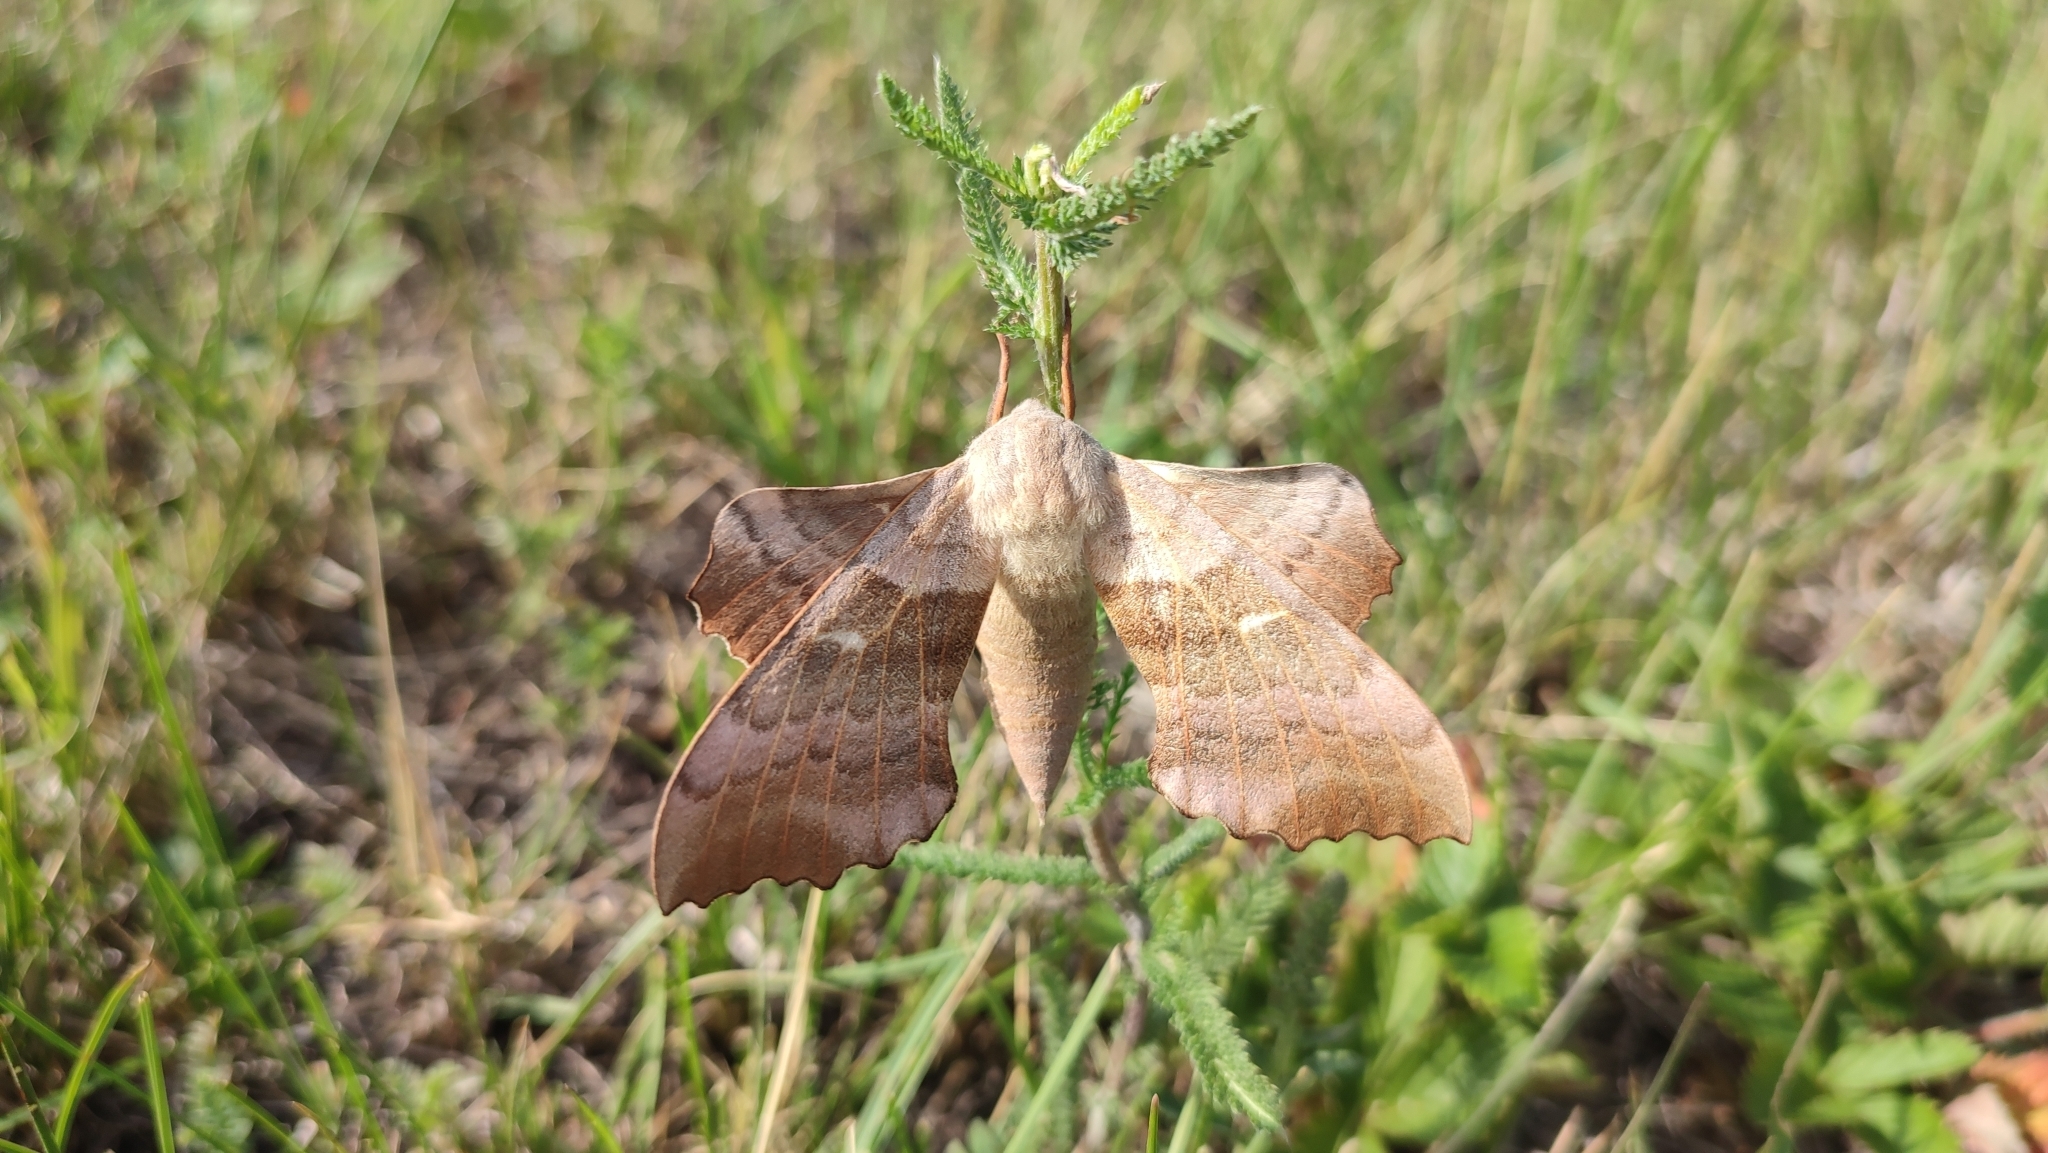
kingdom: Animalia
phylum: Arthropoda
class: Insecta
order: Lepidoptera
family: Sphingidae
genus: Laothoe
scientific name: Laothoe populi
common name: Poplar hawk-moth
